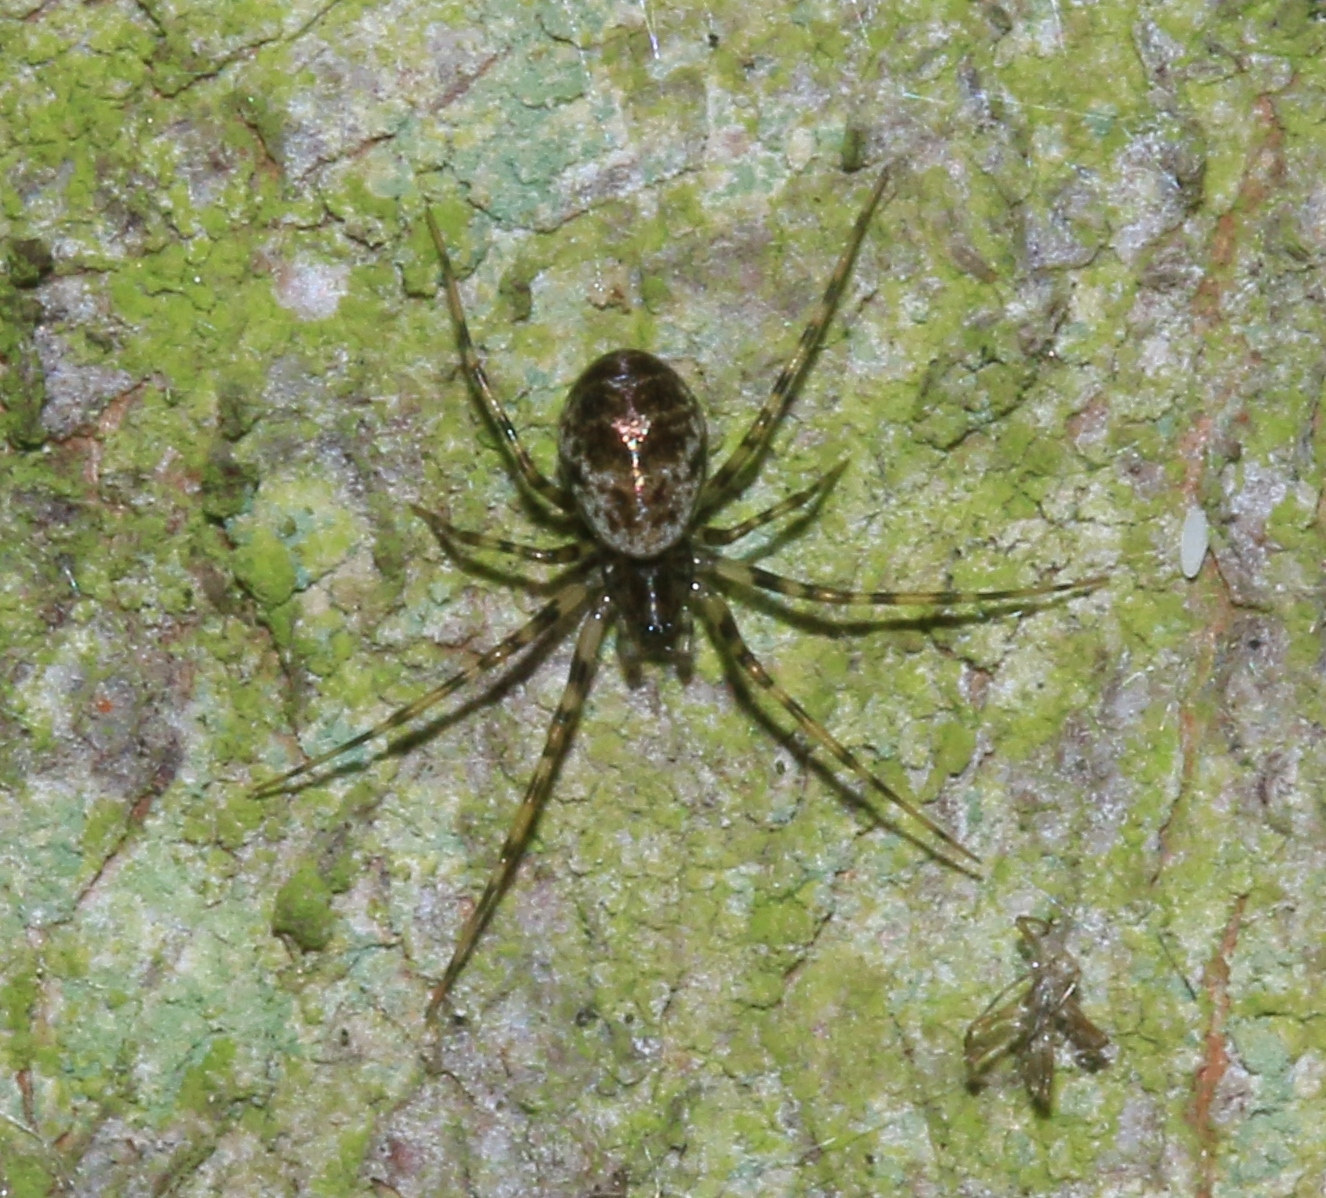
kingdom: Animalia
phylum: Arthropoda
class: Arachnida
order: Araneae
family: Linyphiidae
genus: Drapetisca
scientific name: Drapetisca socialis
